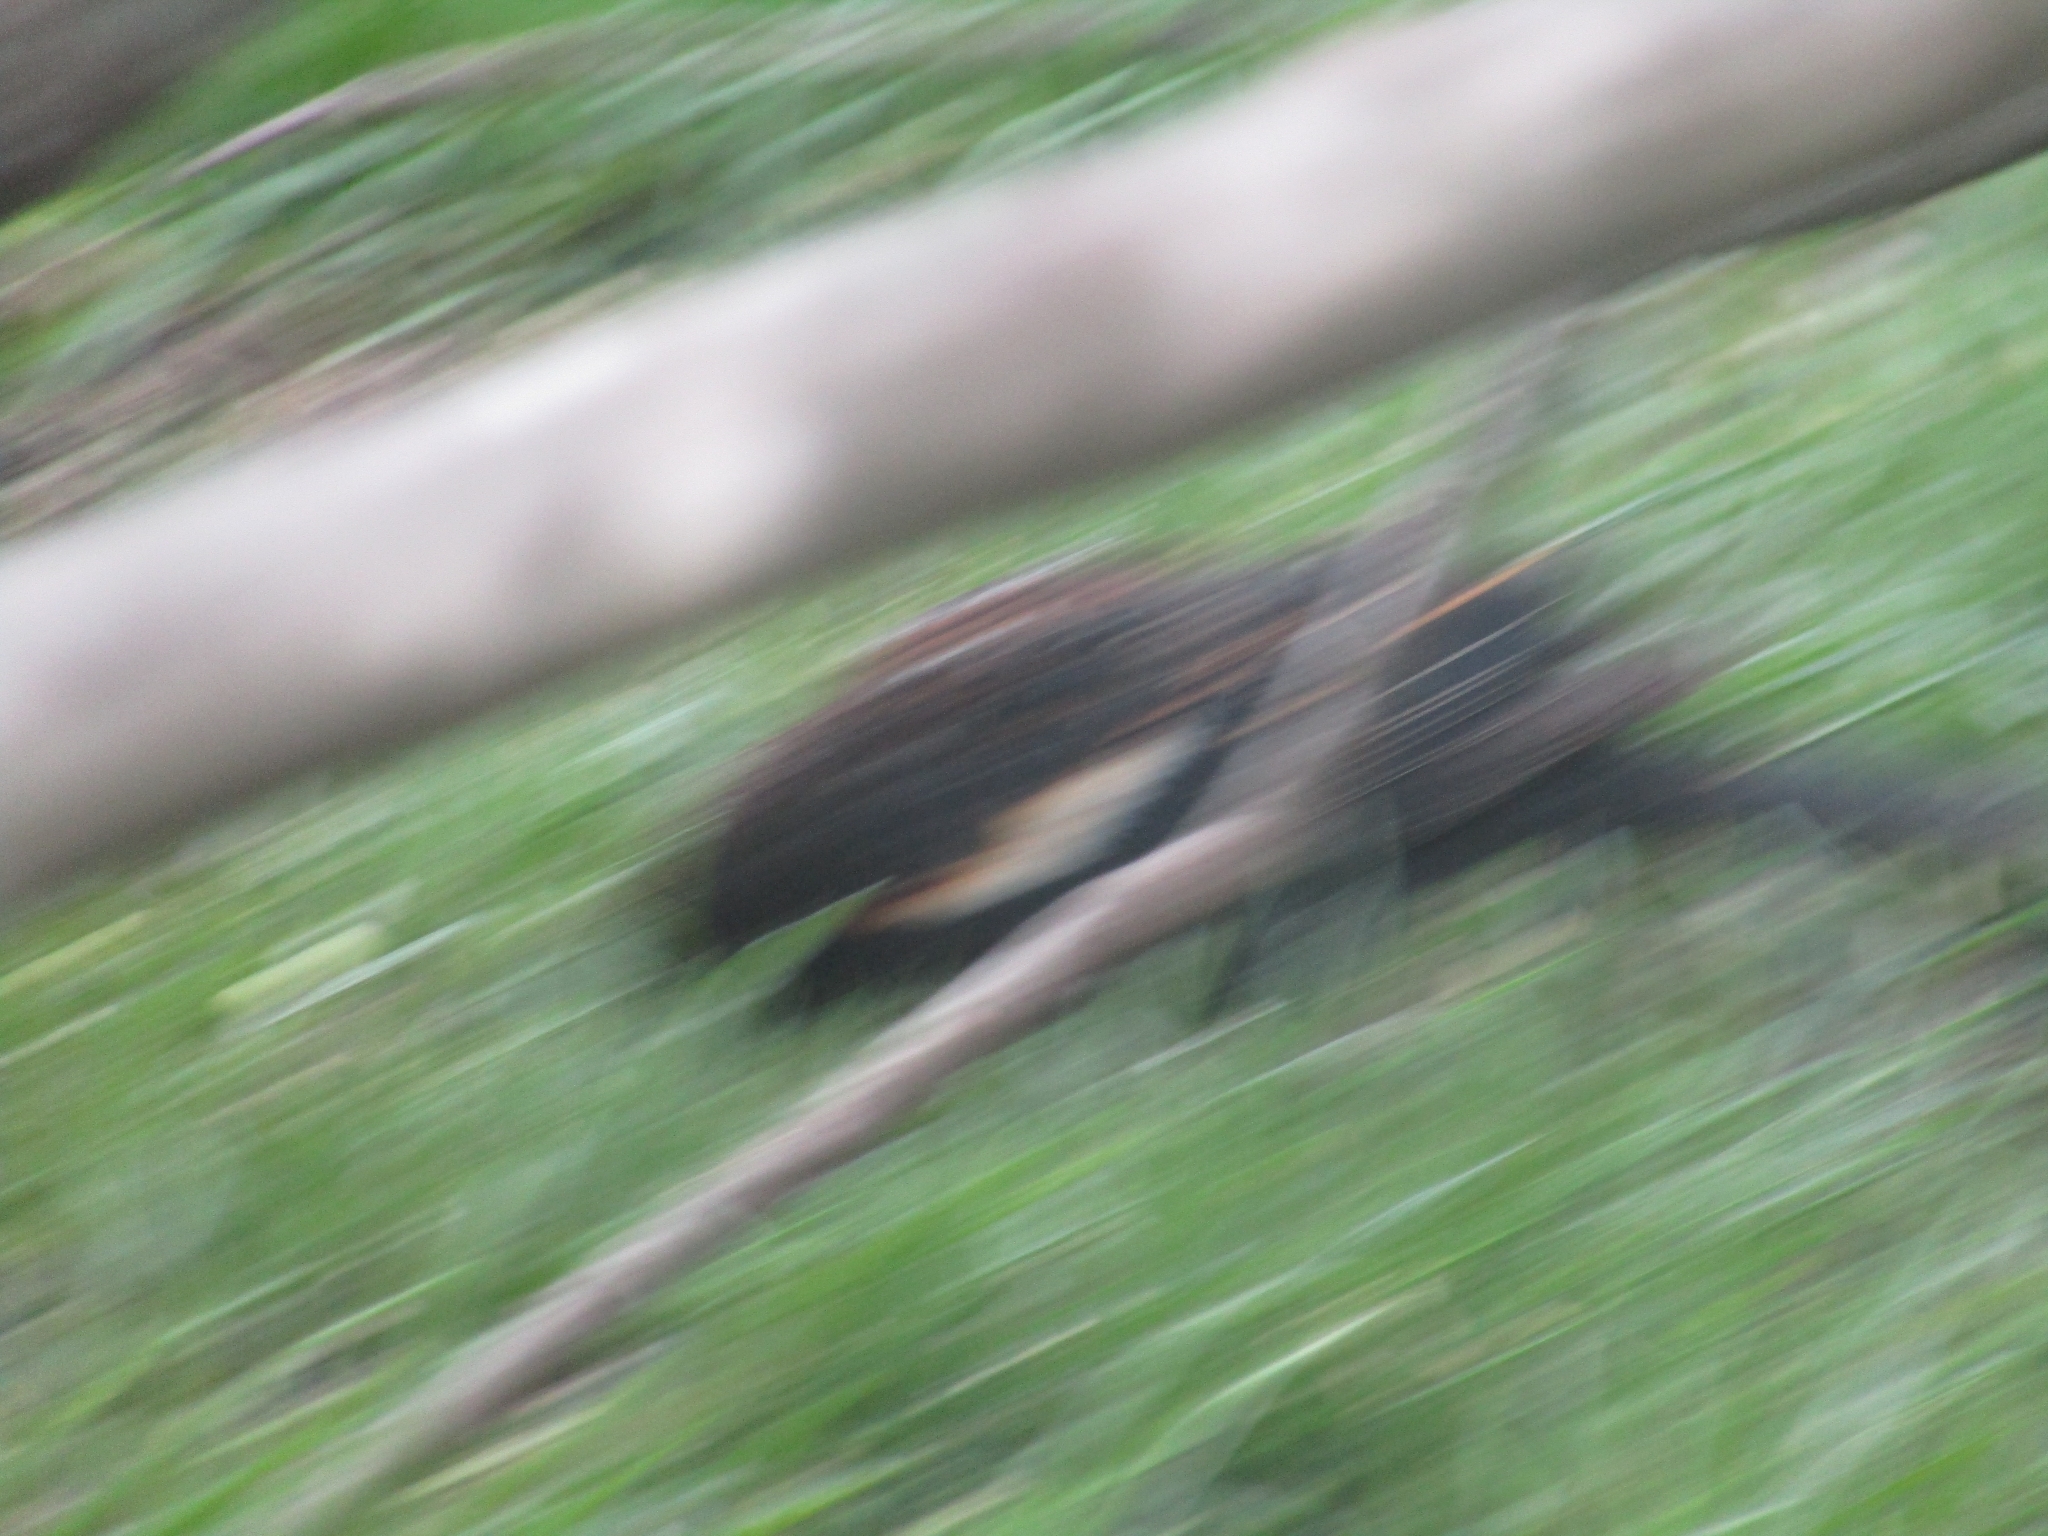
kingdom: Animalia
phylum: Chordata
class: Aves
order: Passeriformes
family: Icteridae
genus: Agelaius
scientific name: Agelaius phoeniceus
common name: Red-winged blackbird
